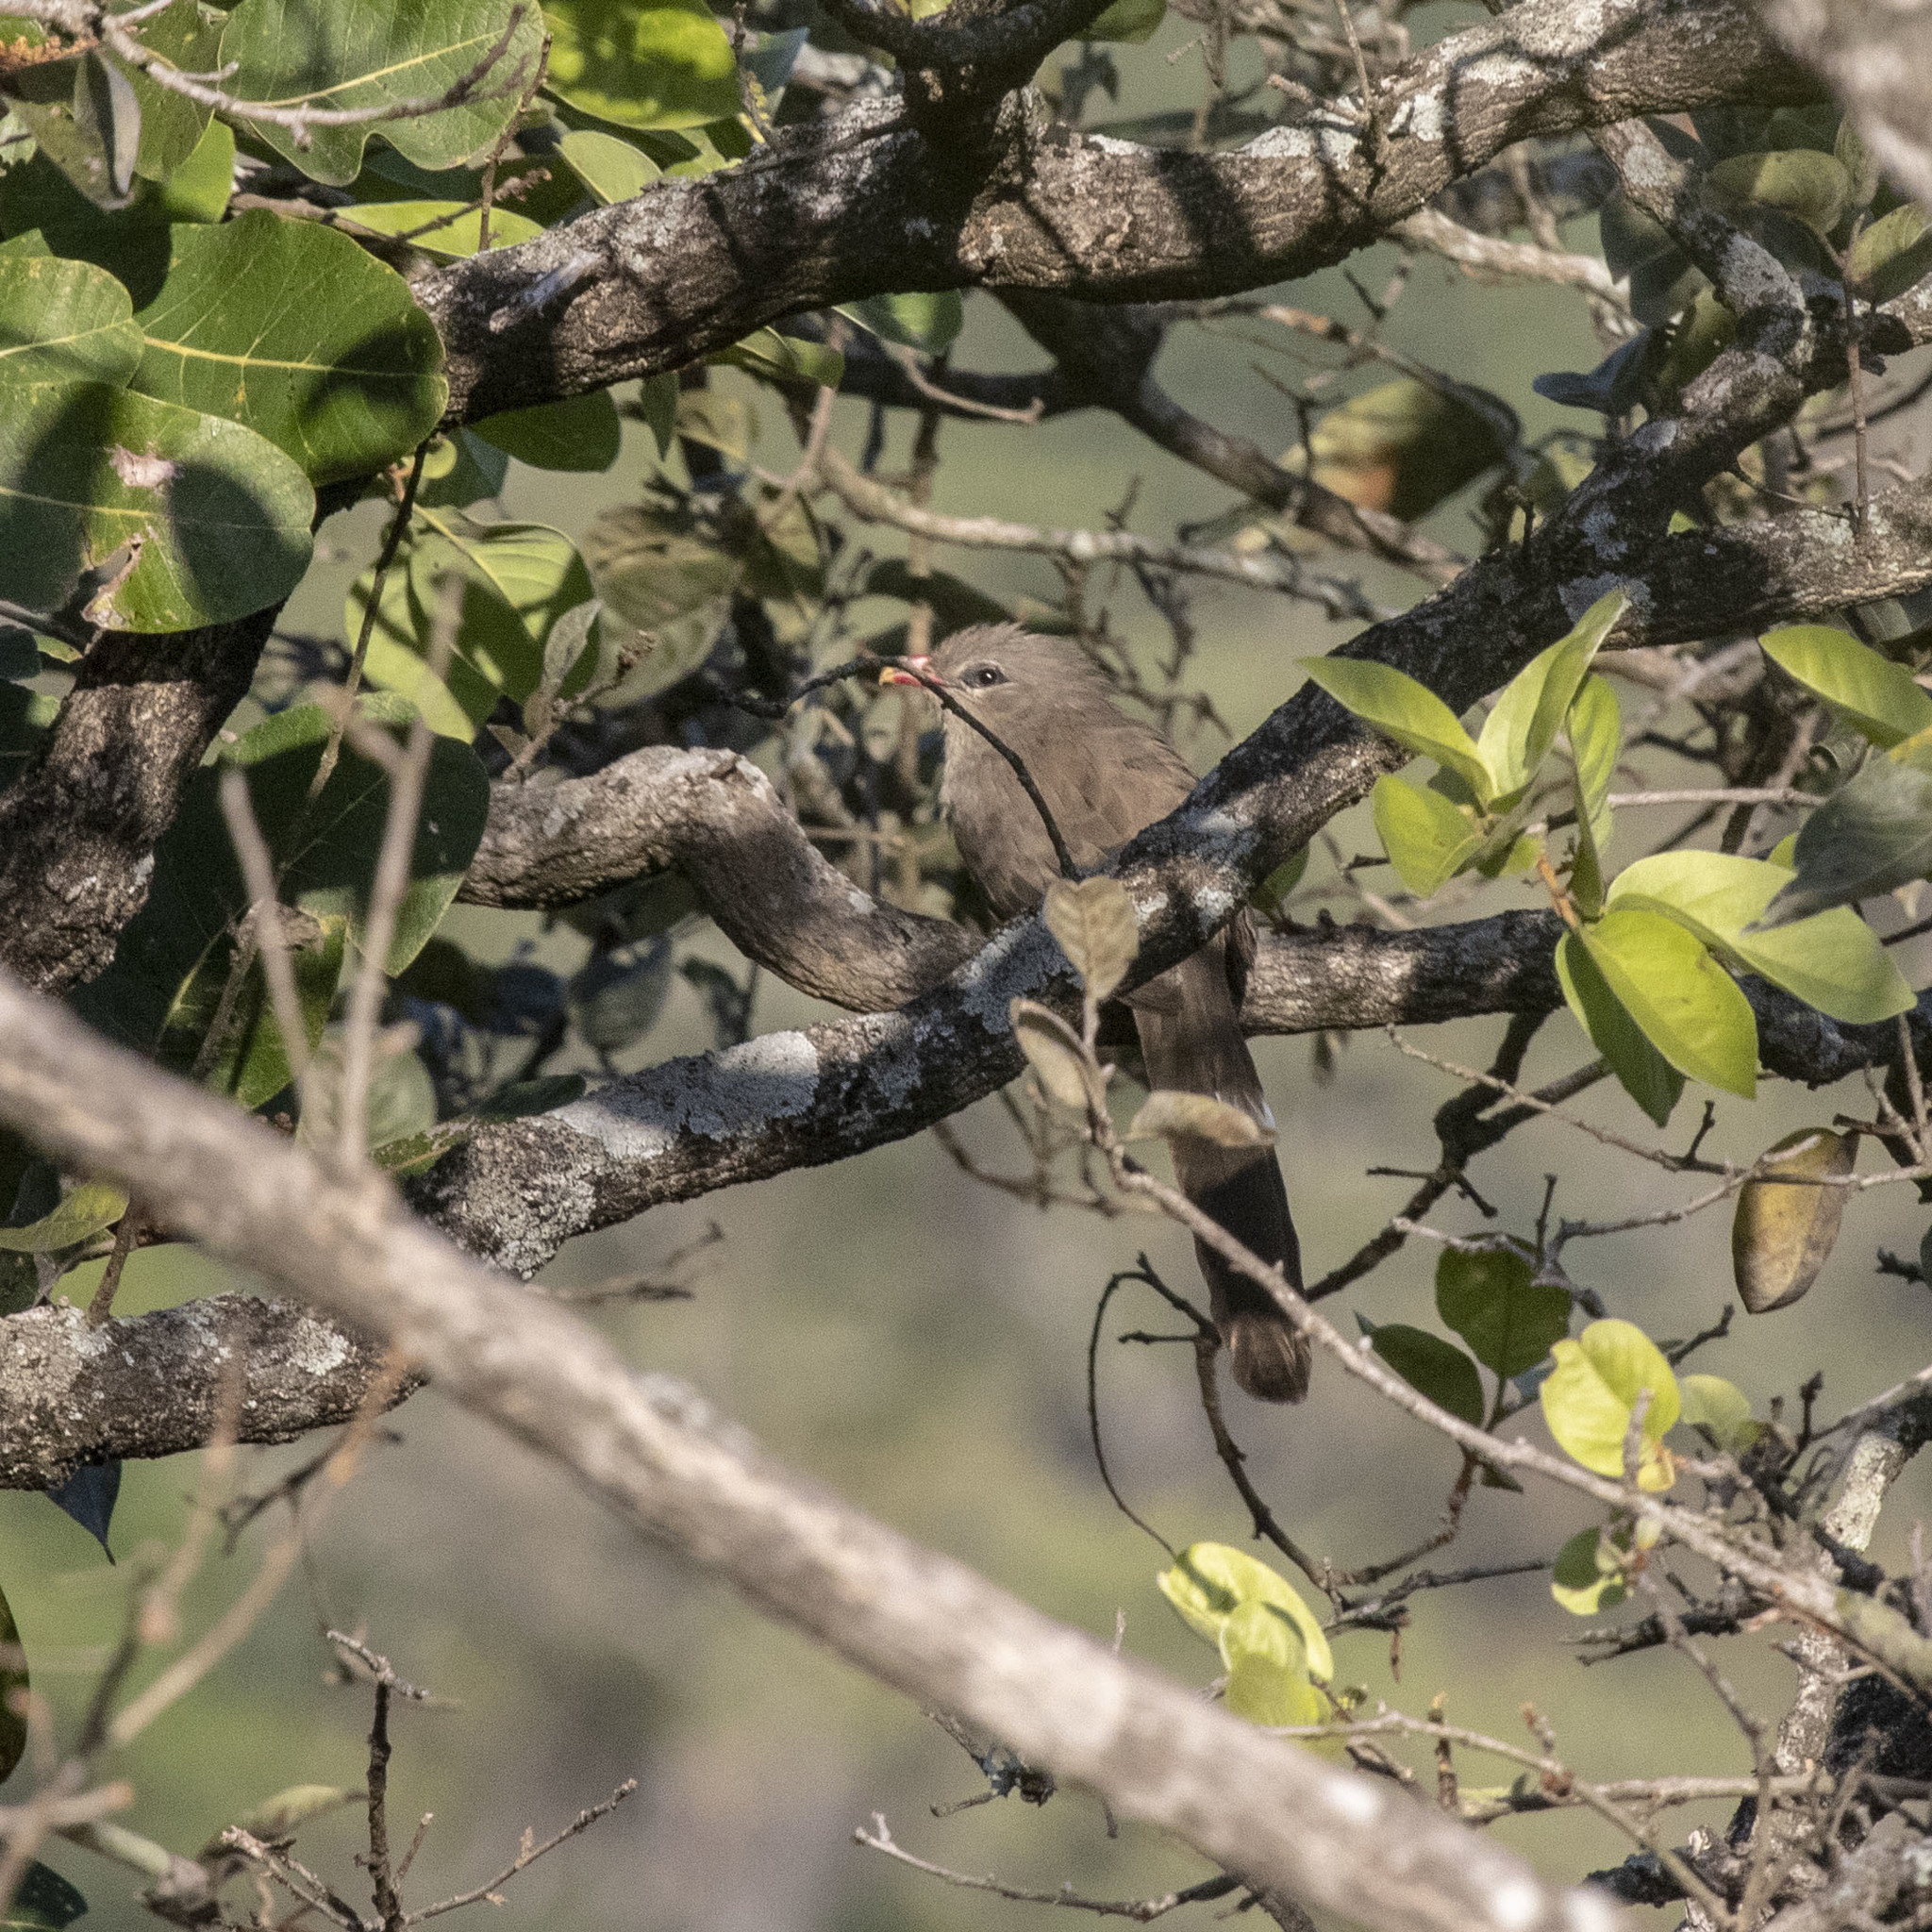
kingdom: Animalia
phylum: Chordata
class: Aves
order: Cuculiformes
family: Cuculidae
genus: Taccocua
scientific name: Taccocua leschenaultii
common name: Sirkeer malkoha
